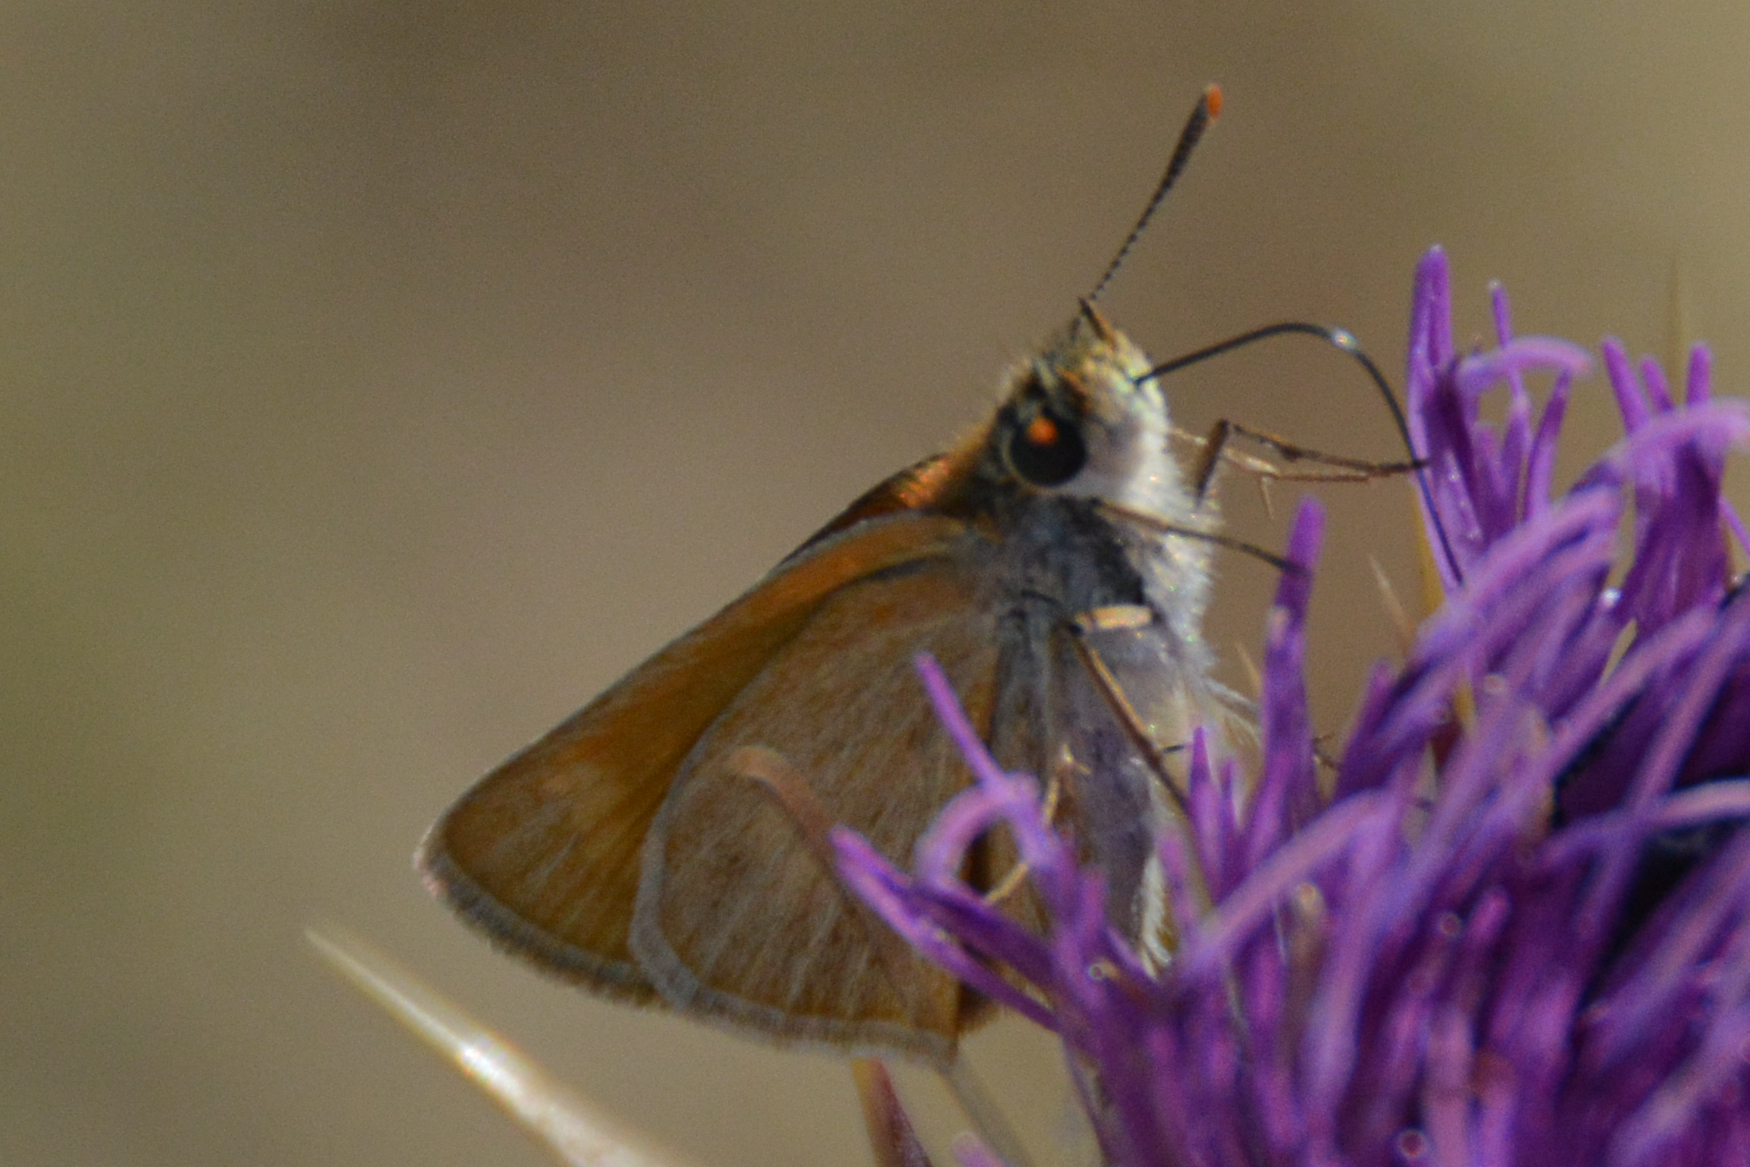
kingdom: Animalia
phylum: Arthropoda
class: Insecta
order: Lepidoptera
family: Hesperiidae
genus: Thymelicus
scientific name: Thymelicus acteon
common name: Lulworth skipper
